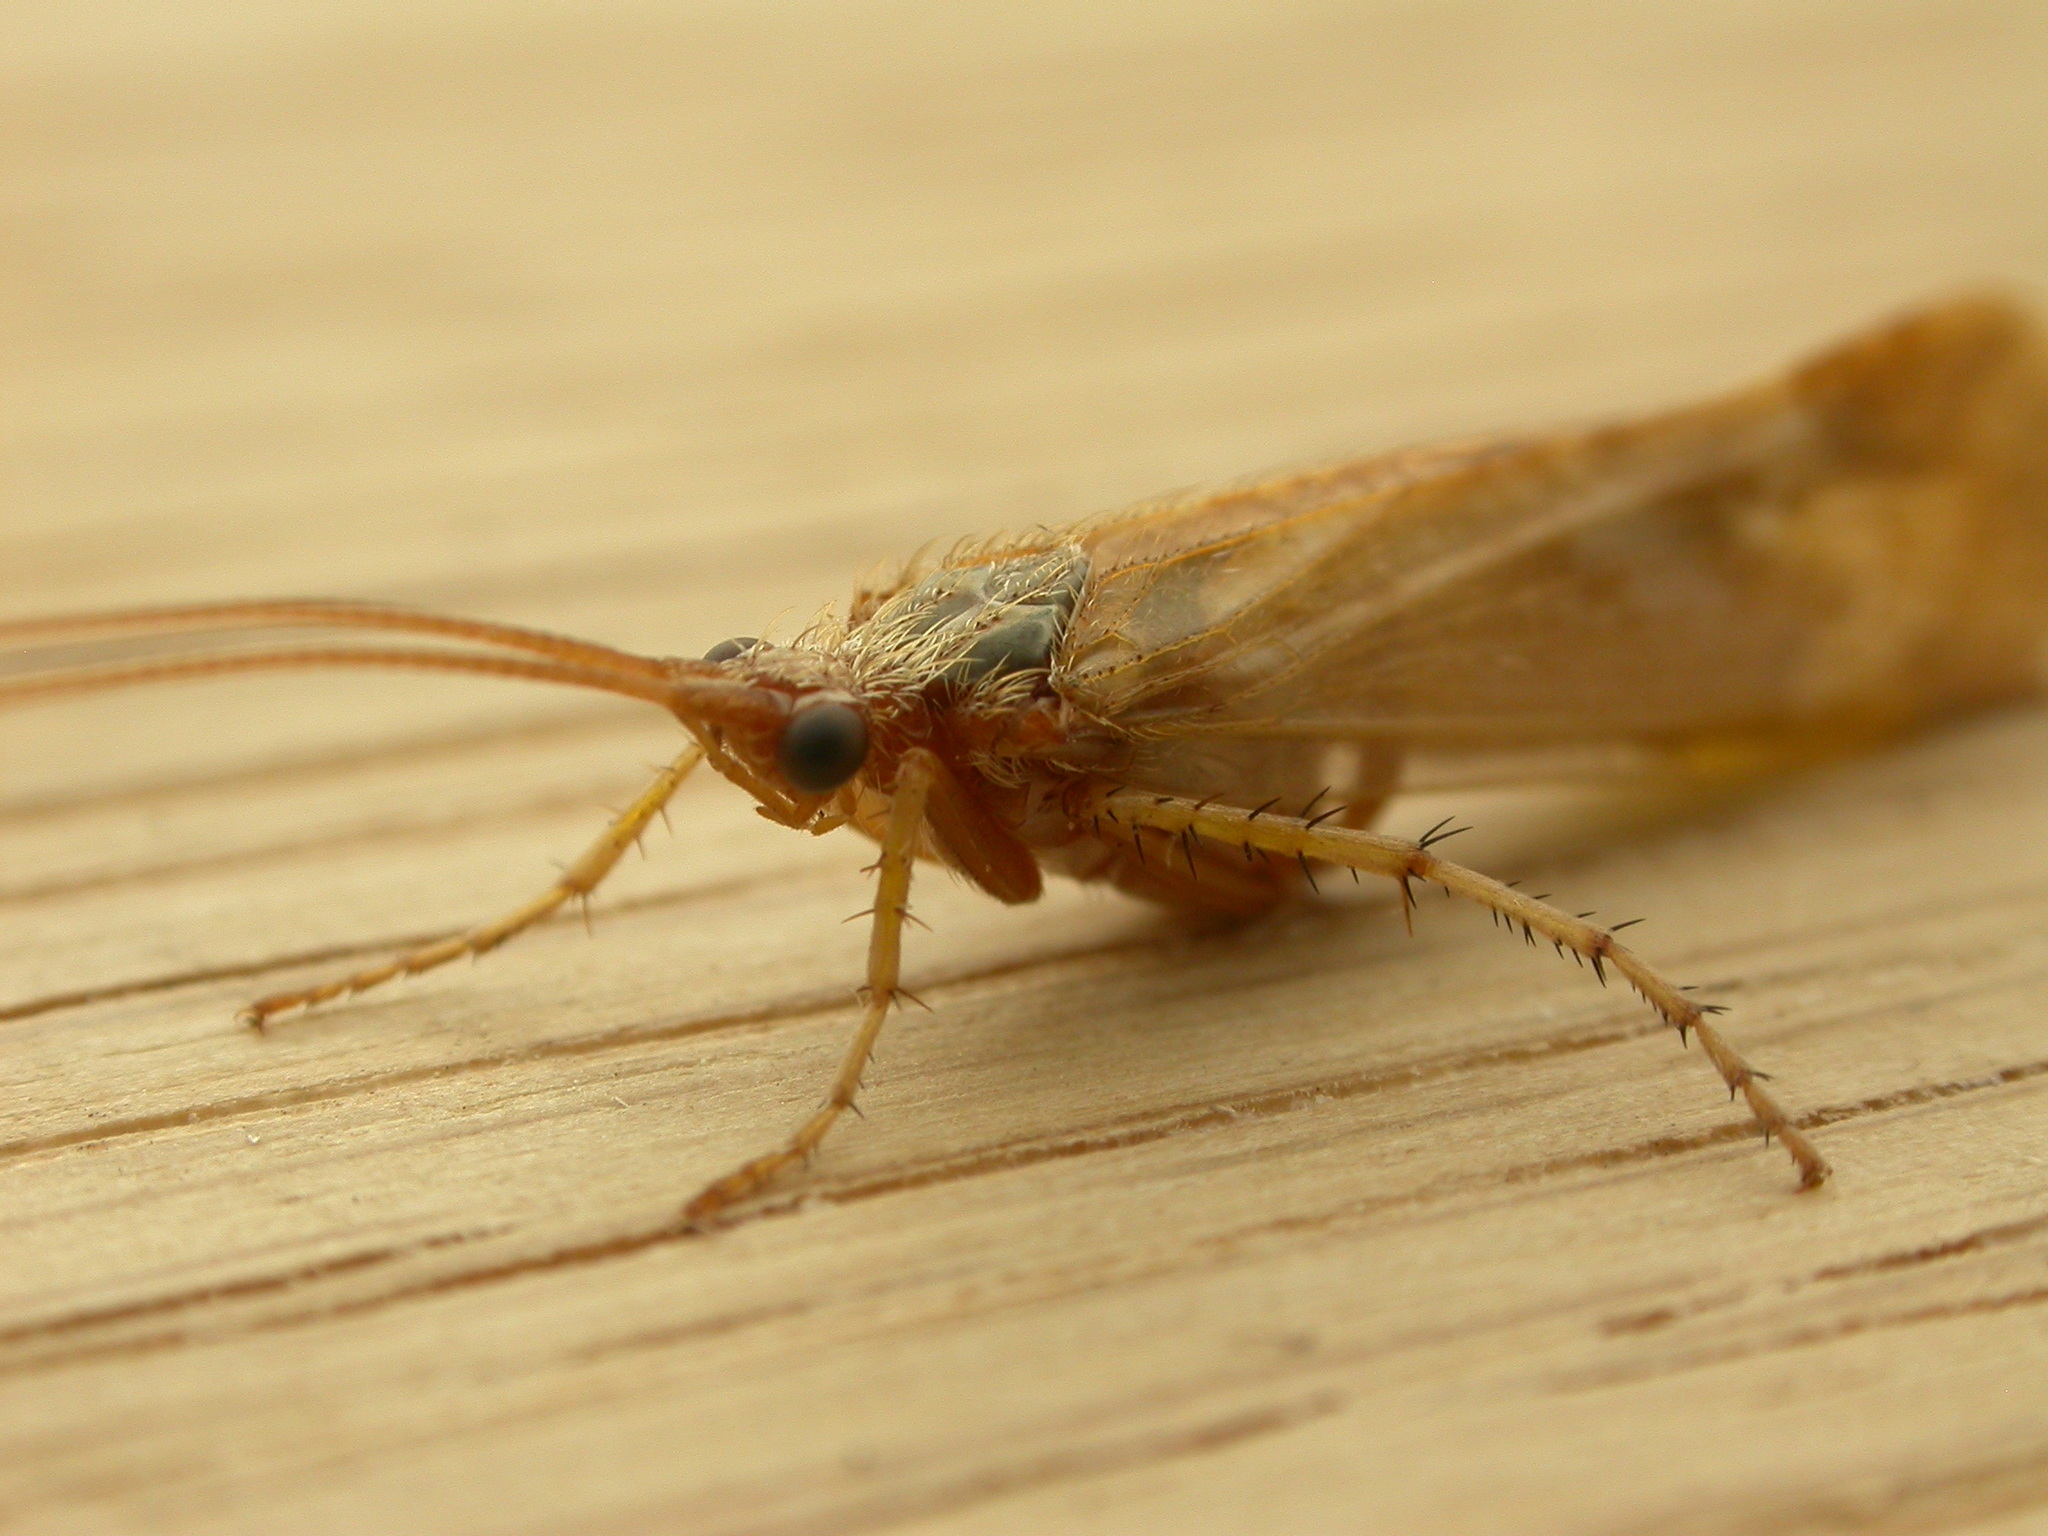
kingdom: Animalia
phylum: Arthropoda
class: Insecta
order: Trichoptera
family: Limnephilidae
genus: Limnephilus
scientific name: Limnephilus flavicornis
